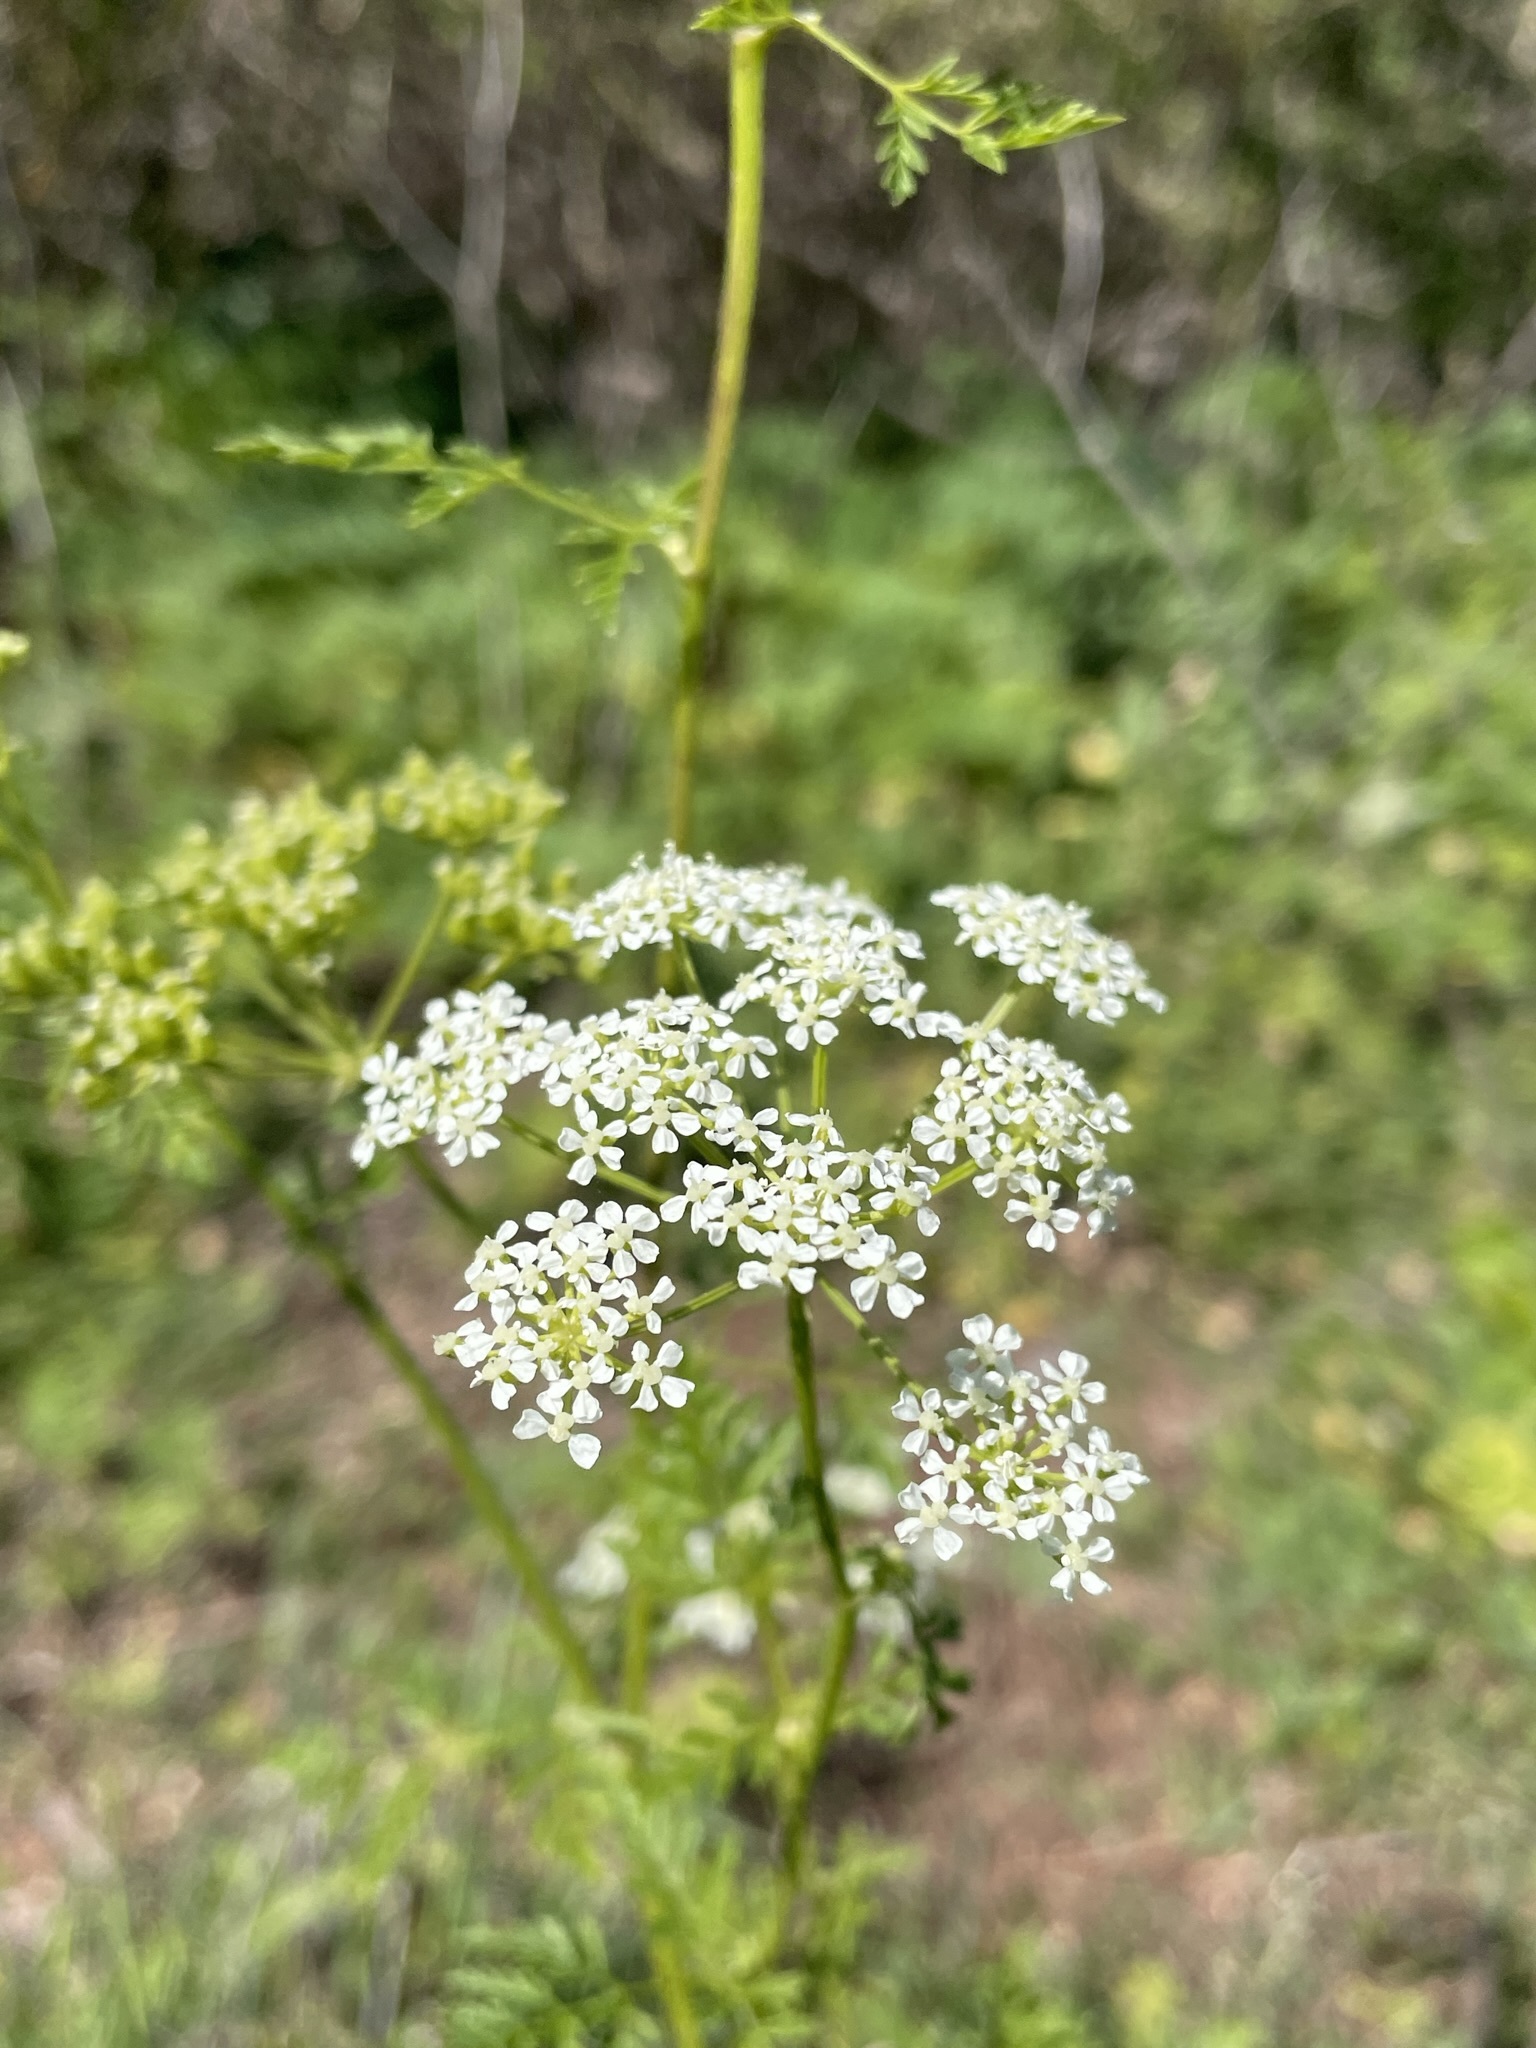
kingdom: Plantae
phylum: Tracheophyta
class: Magnoliopsida
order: Apiales
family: Apiaceae
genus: Conium
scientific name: Conium maculatum
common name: Hemlock
